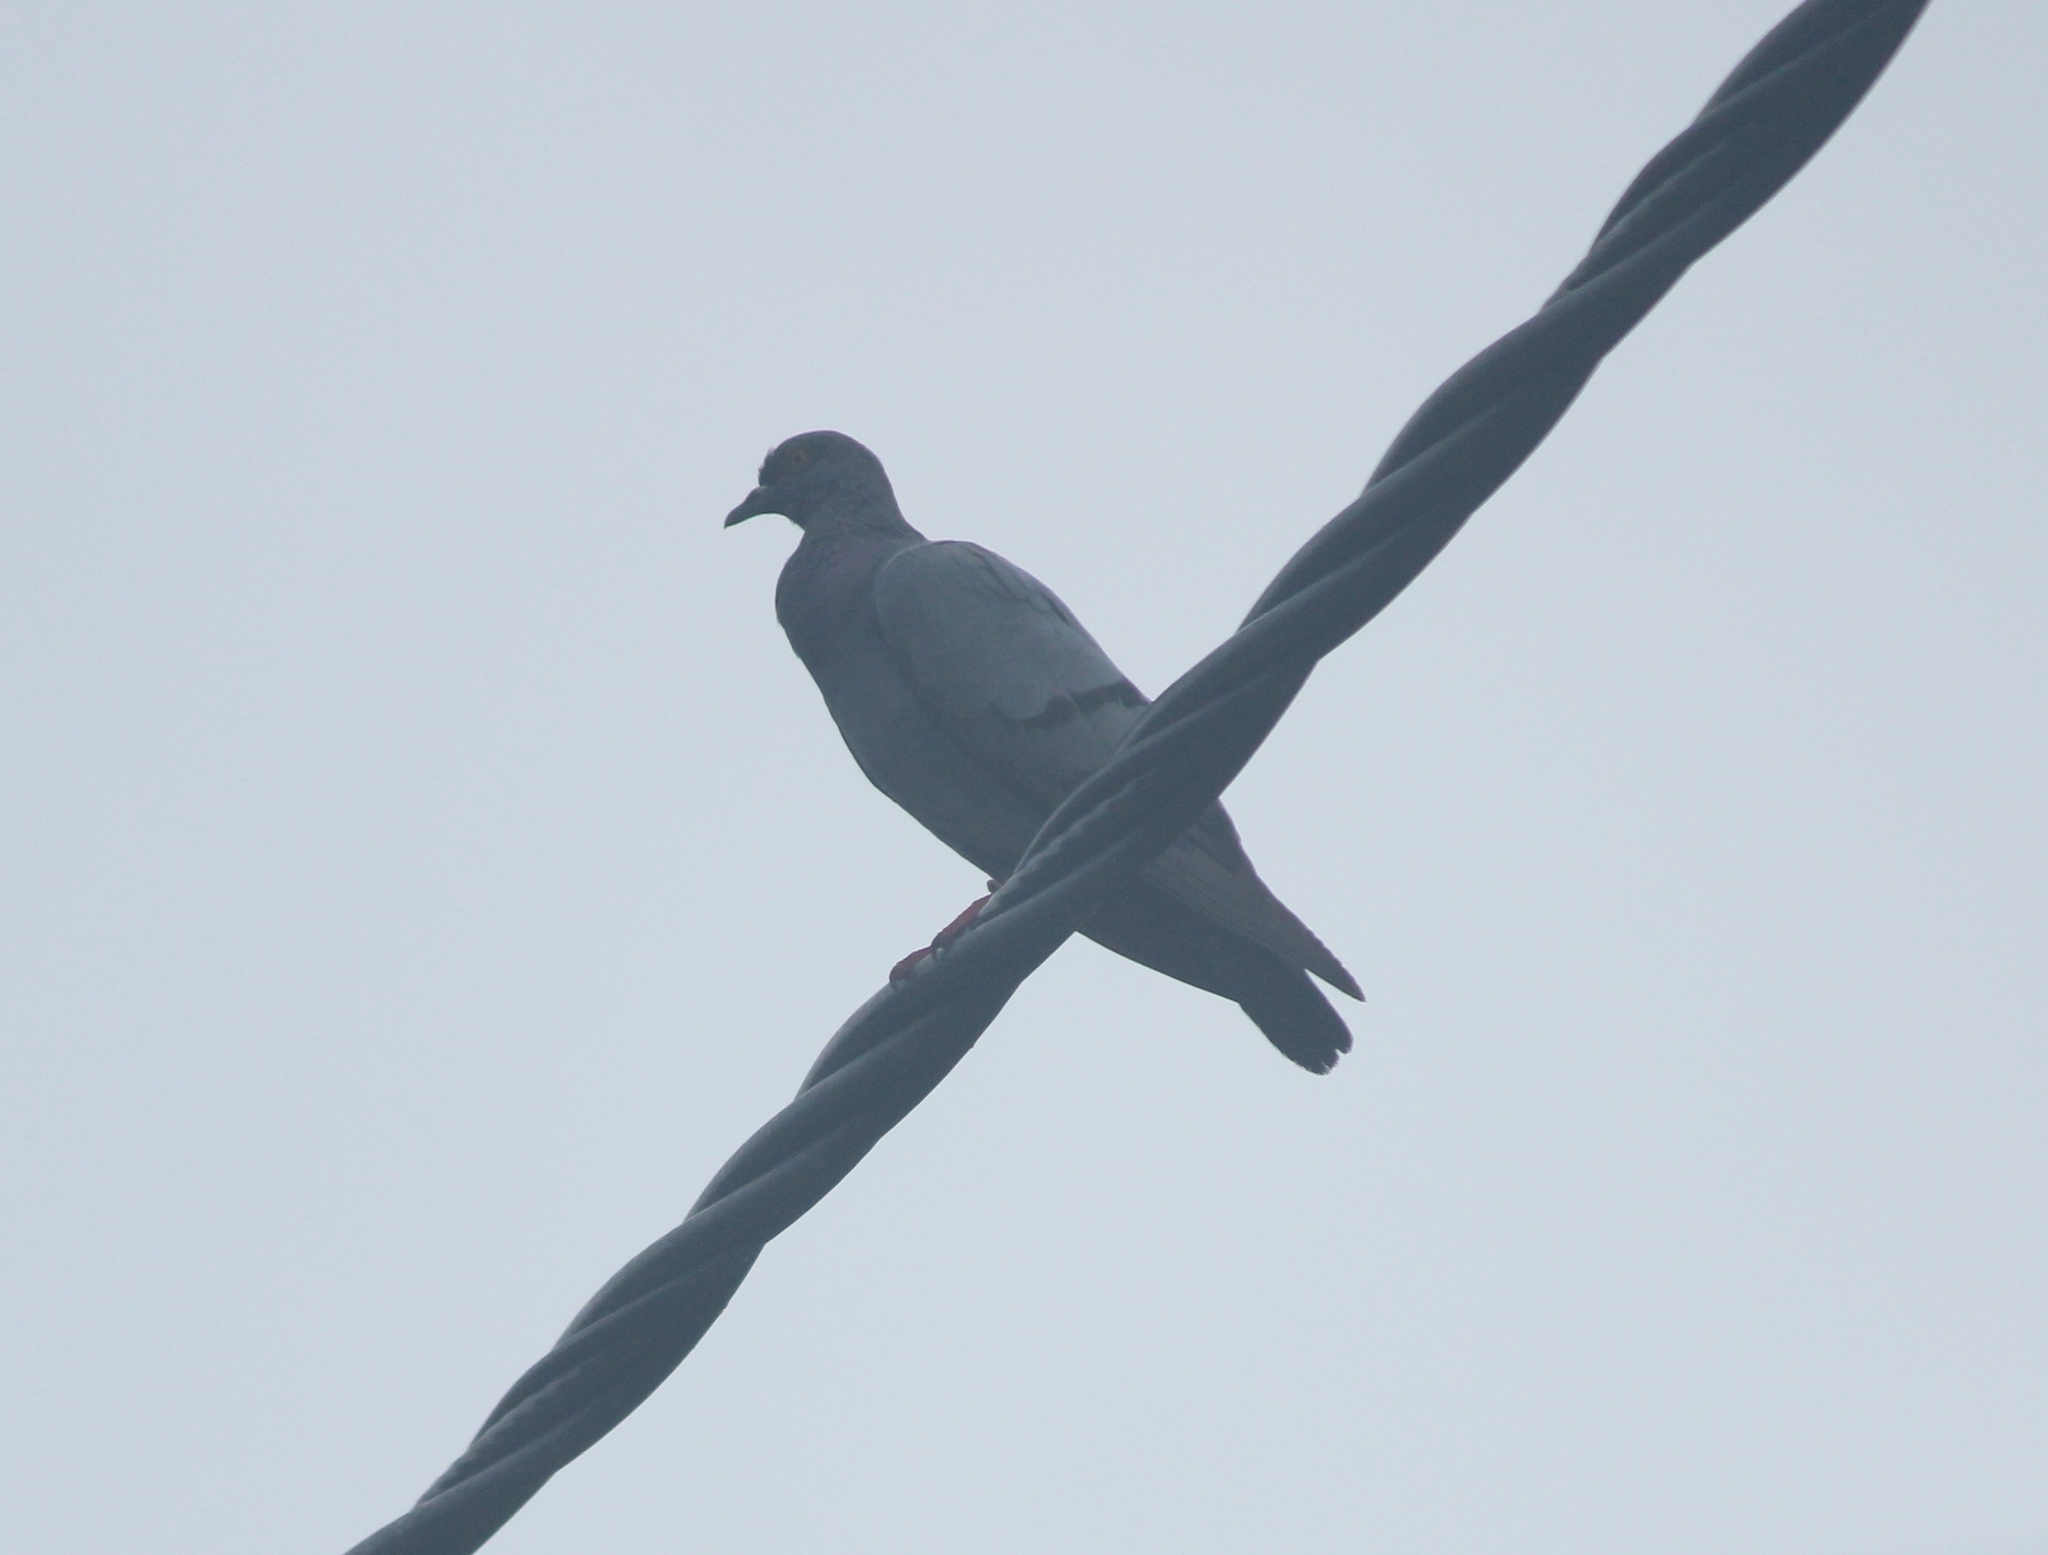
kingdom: Animalia
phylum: Chordata
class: Aves
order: Columbiformes
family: Columbidae
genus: Columba
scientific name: Columba livia
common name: Rock pigeon
